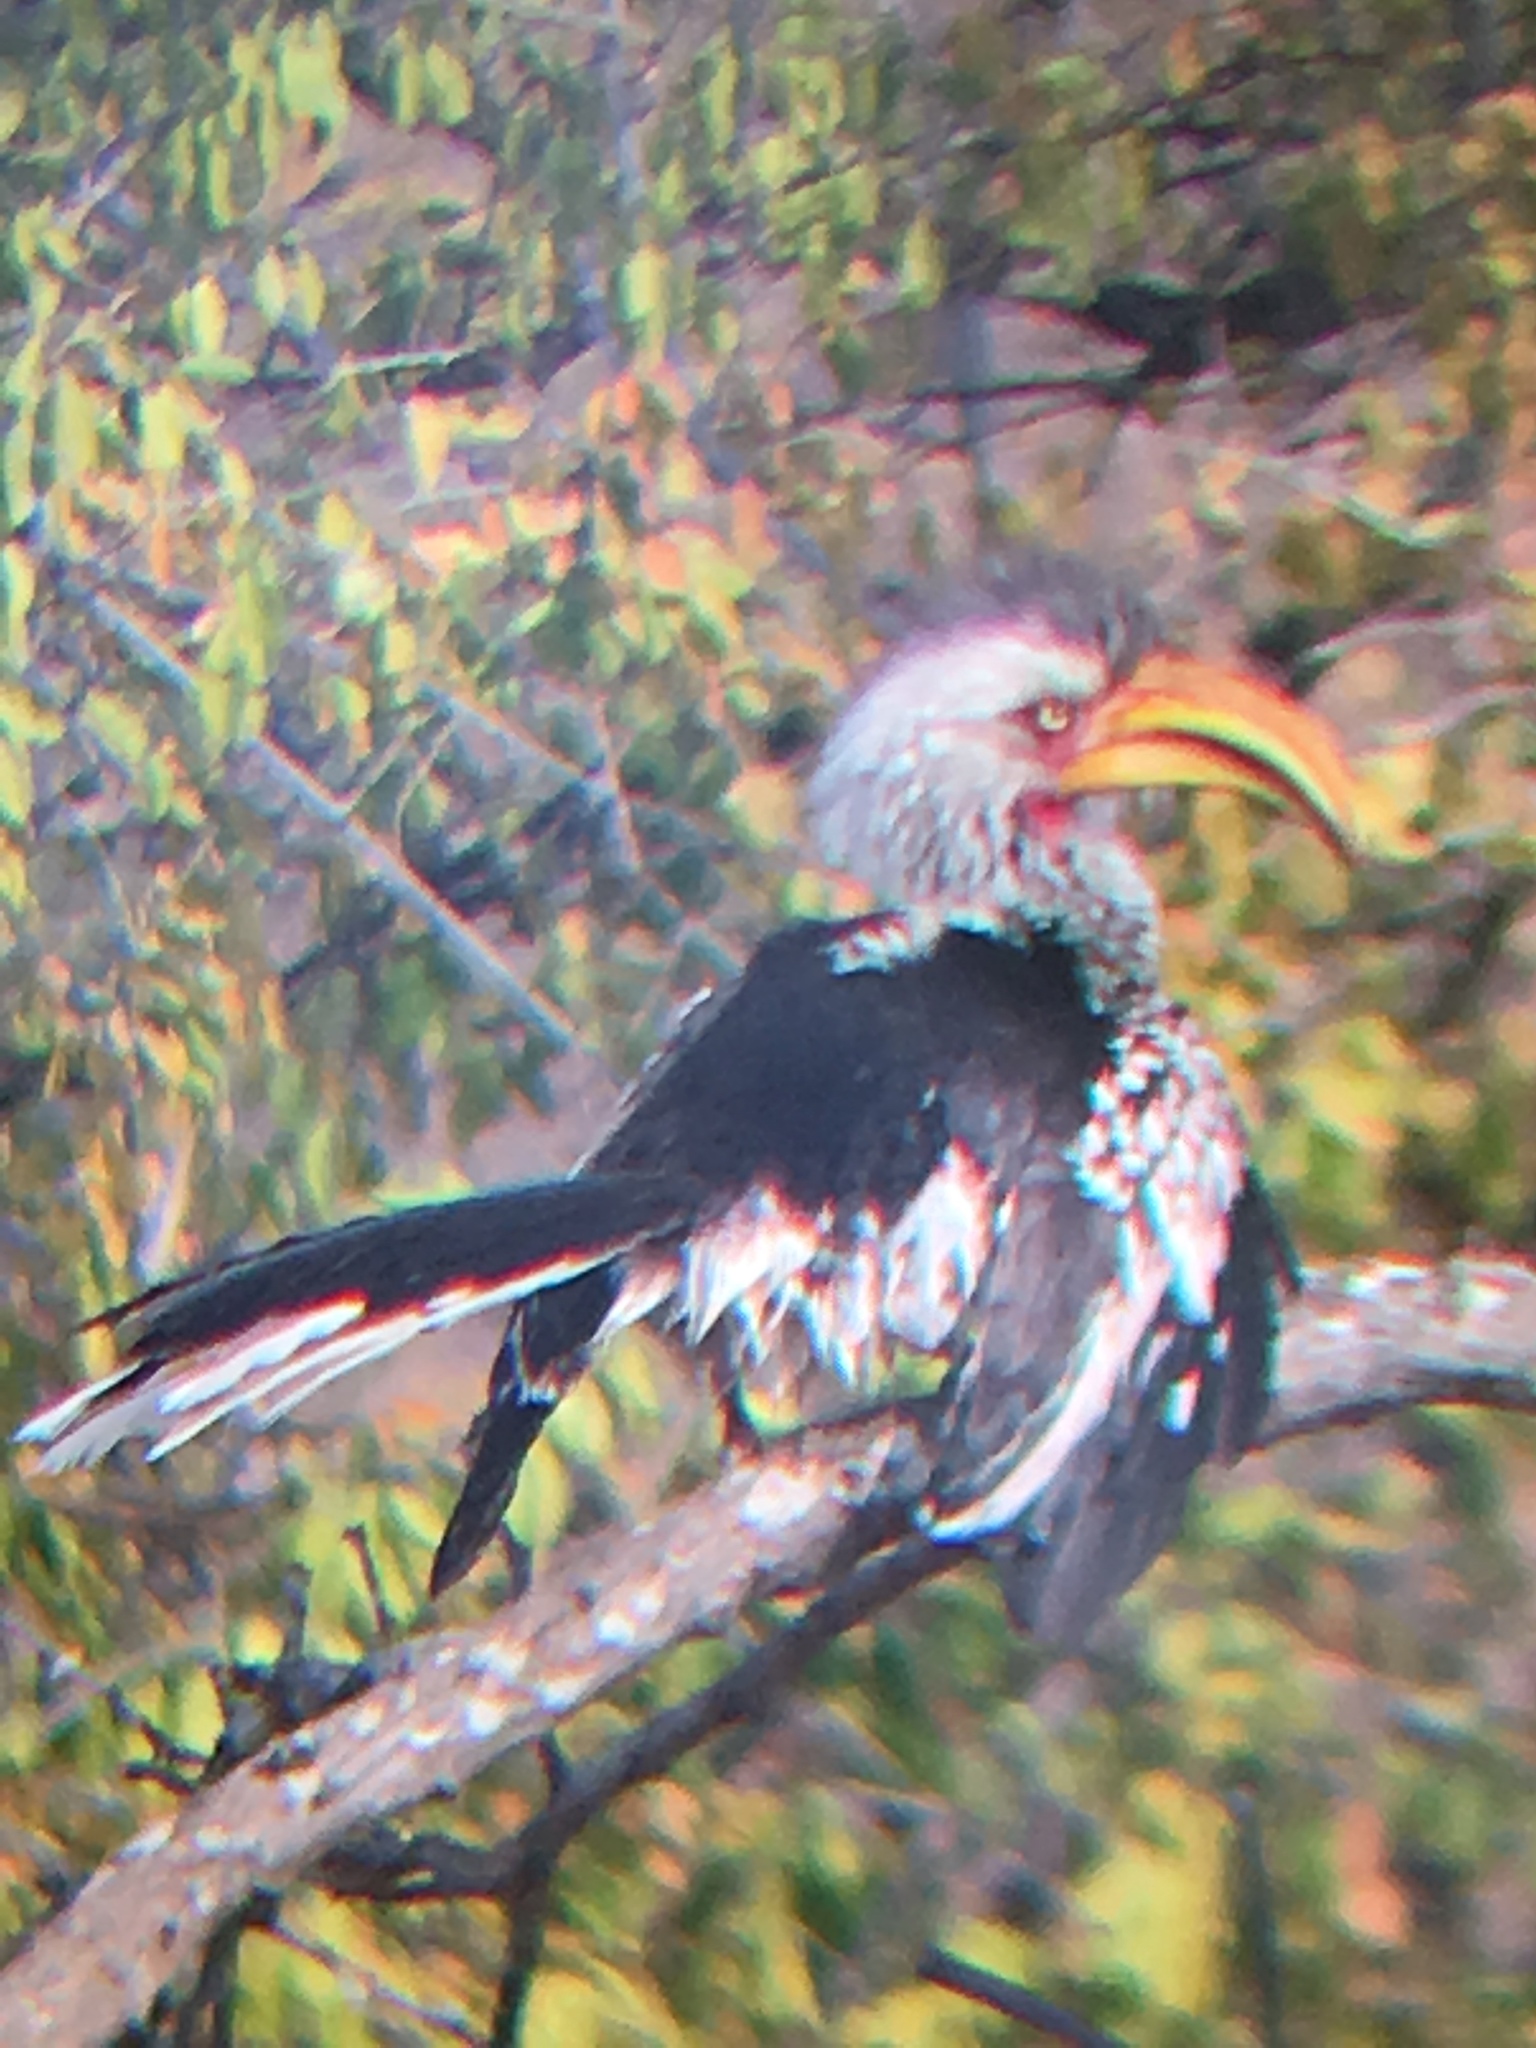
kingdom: Animalia
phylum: Chordata
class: Aves
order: Bucerotiformes
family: Bucerotidae
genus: Tockus
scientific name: Tockus leucomelas
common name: Southern yellow-billed hornbill
